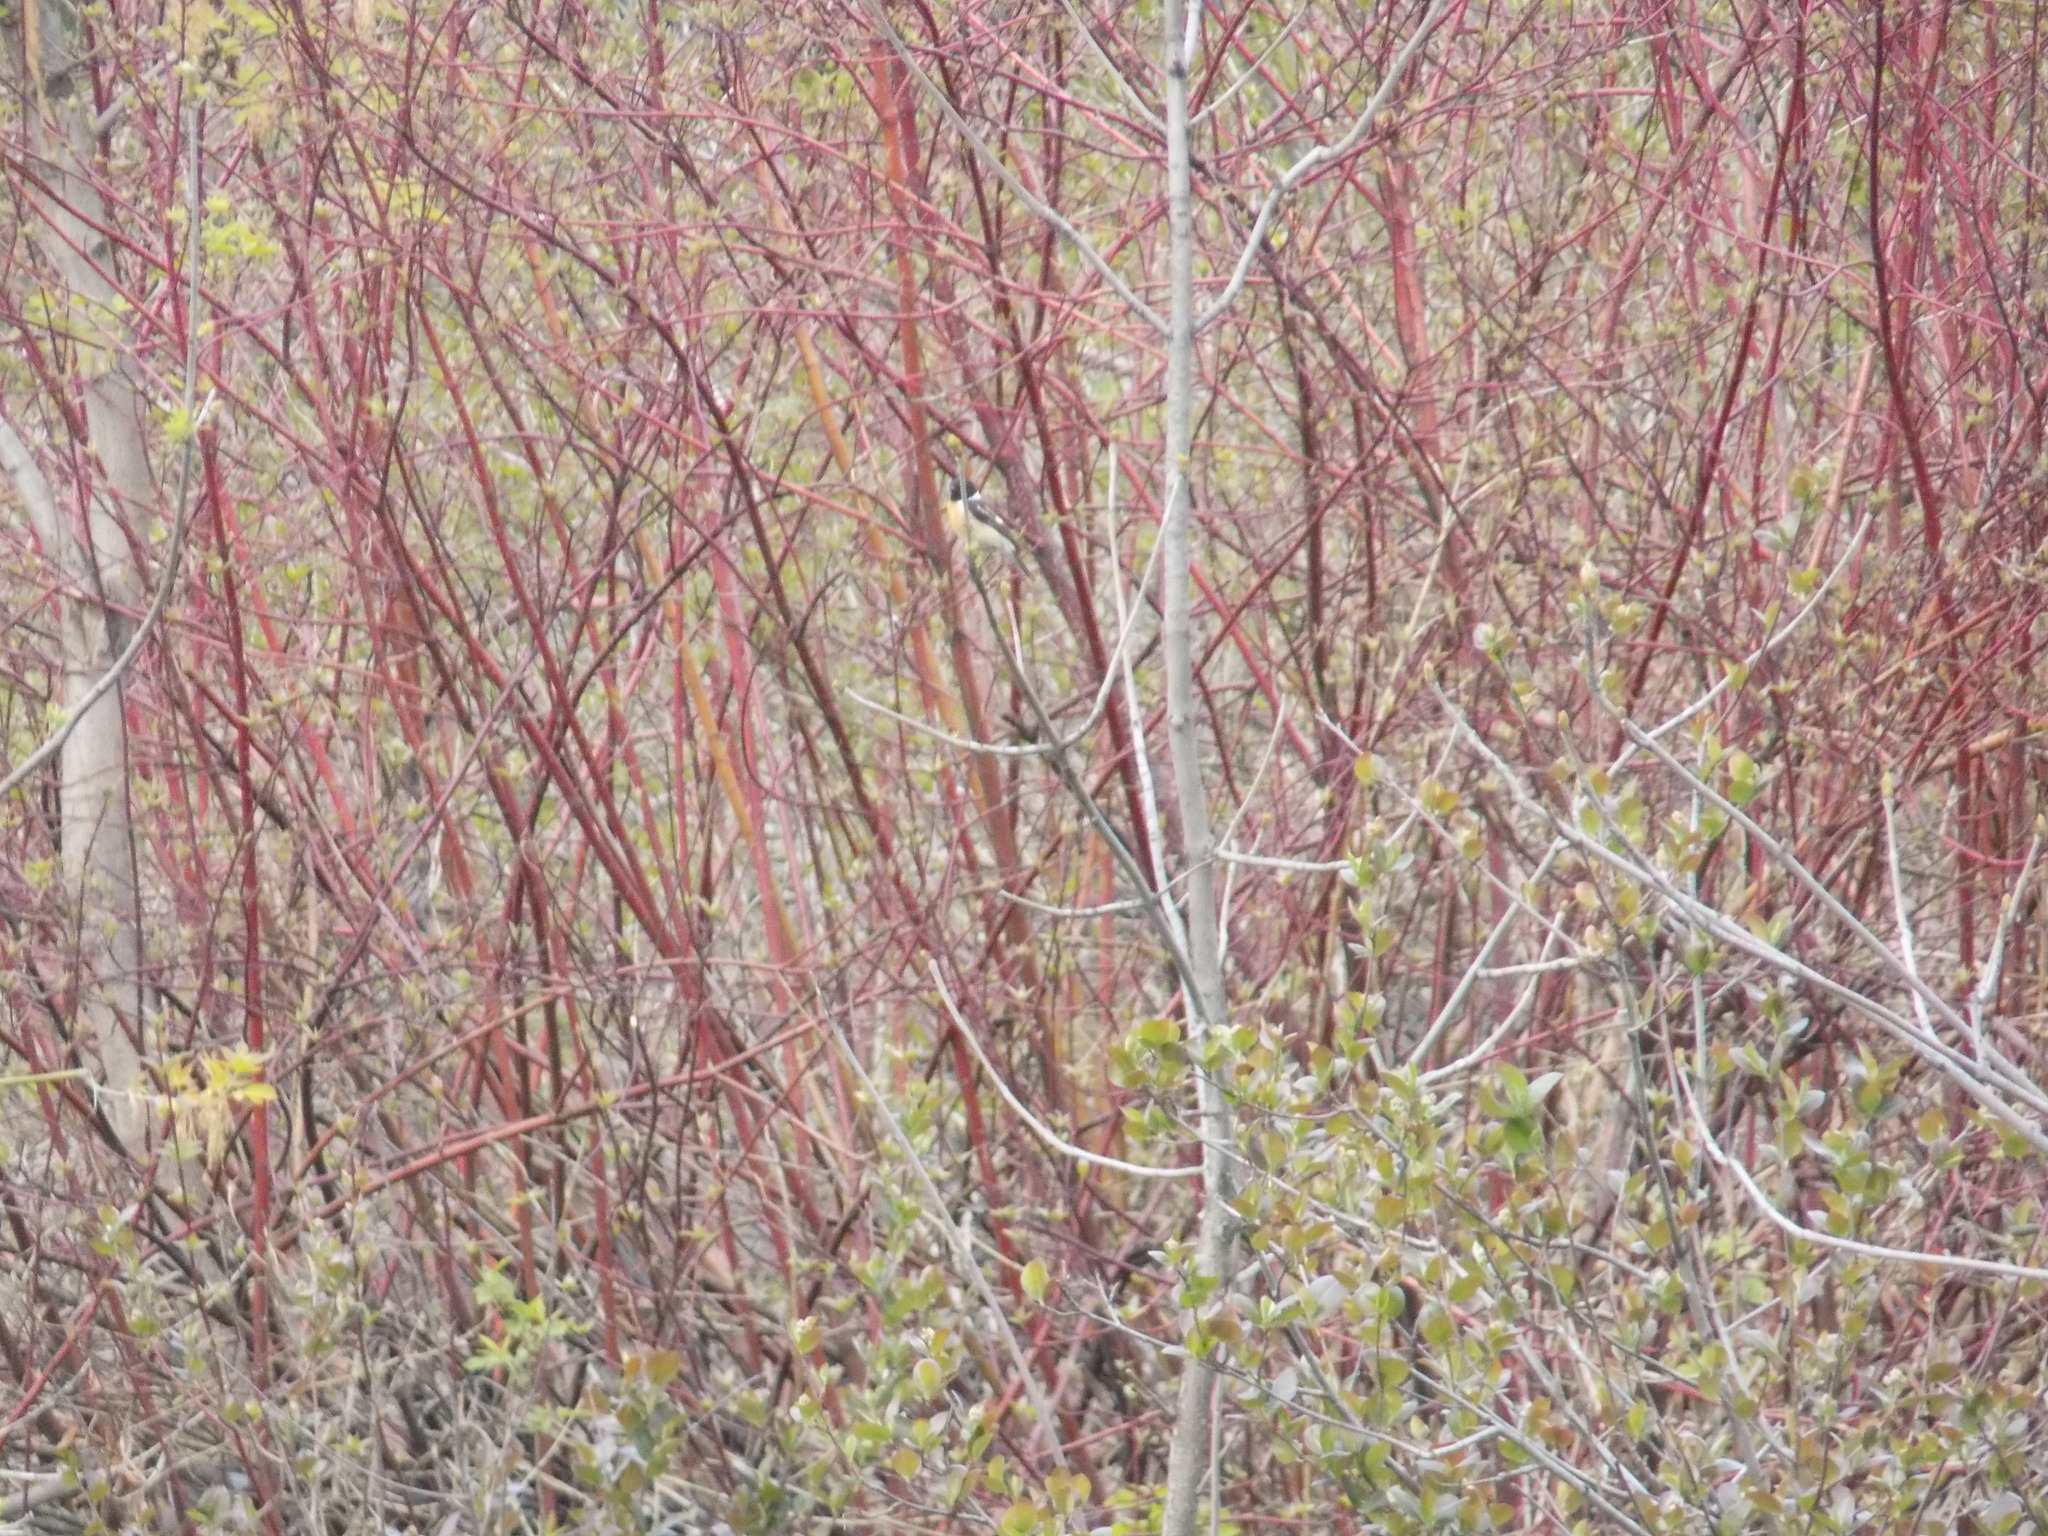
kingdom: Animalia
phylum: Chordata
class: Aves
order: Passeriformes
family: Muscicapidae
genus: Saxicola
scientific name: Saxicola maurus
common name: Siberian stonechat
